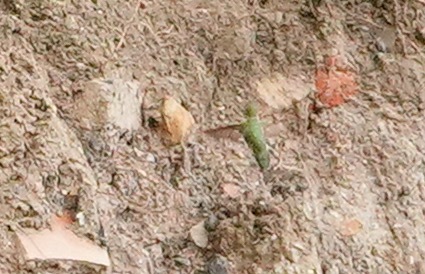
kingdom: Animalia
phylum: Chordata
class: Aves
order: Apodiformes
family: Trochilidae
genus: Calypte
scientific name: Calypte anna
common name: Anna's hummingbird
